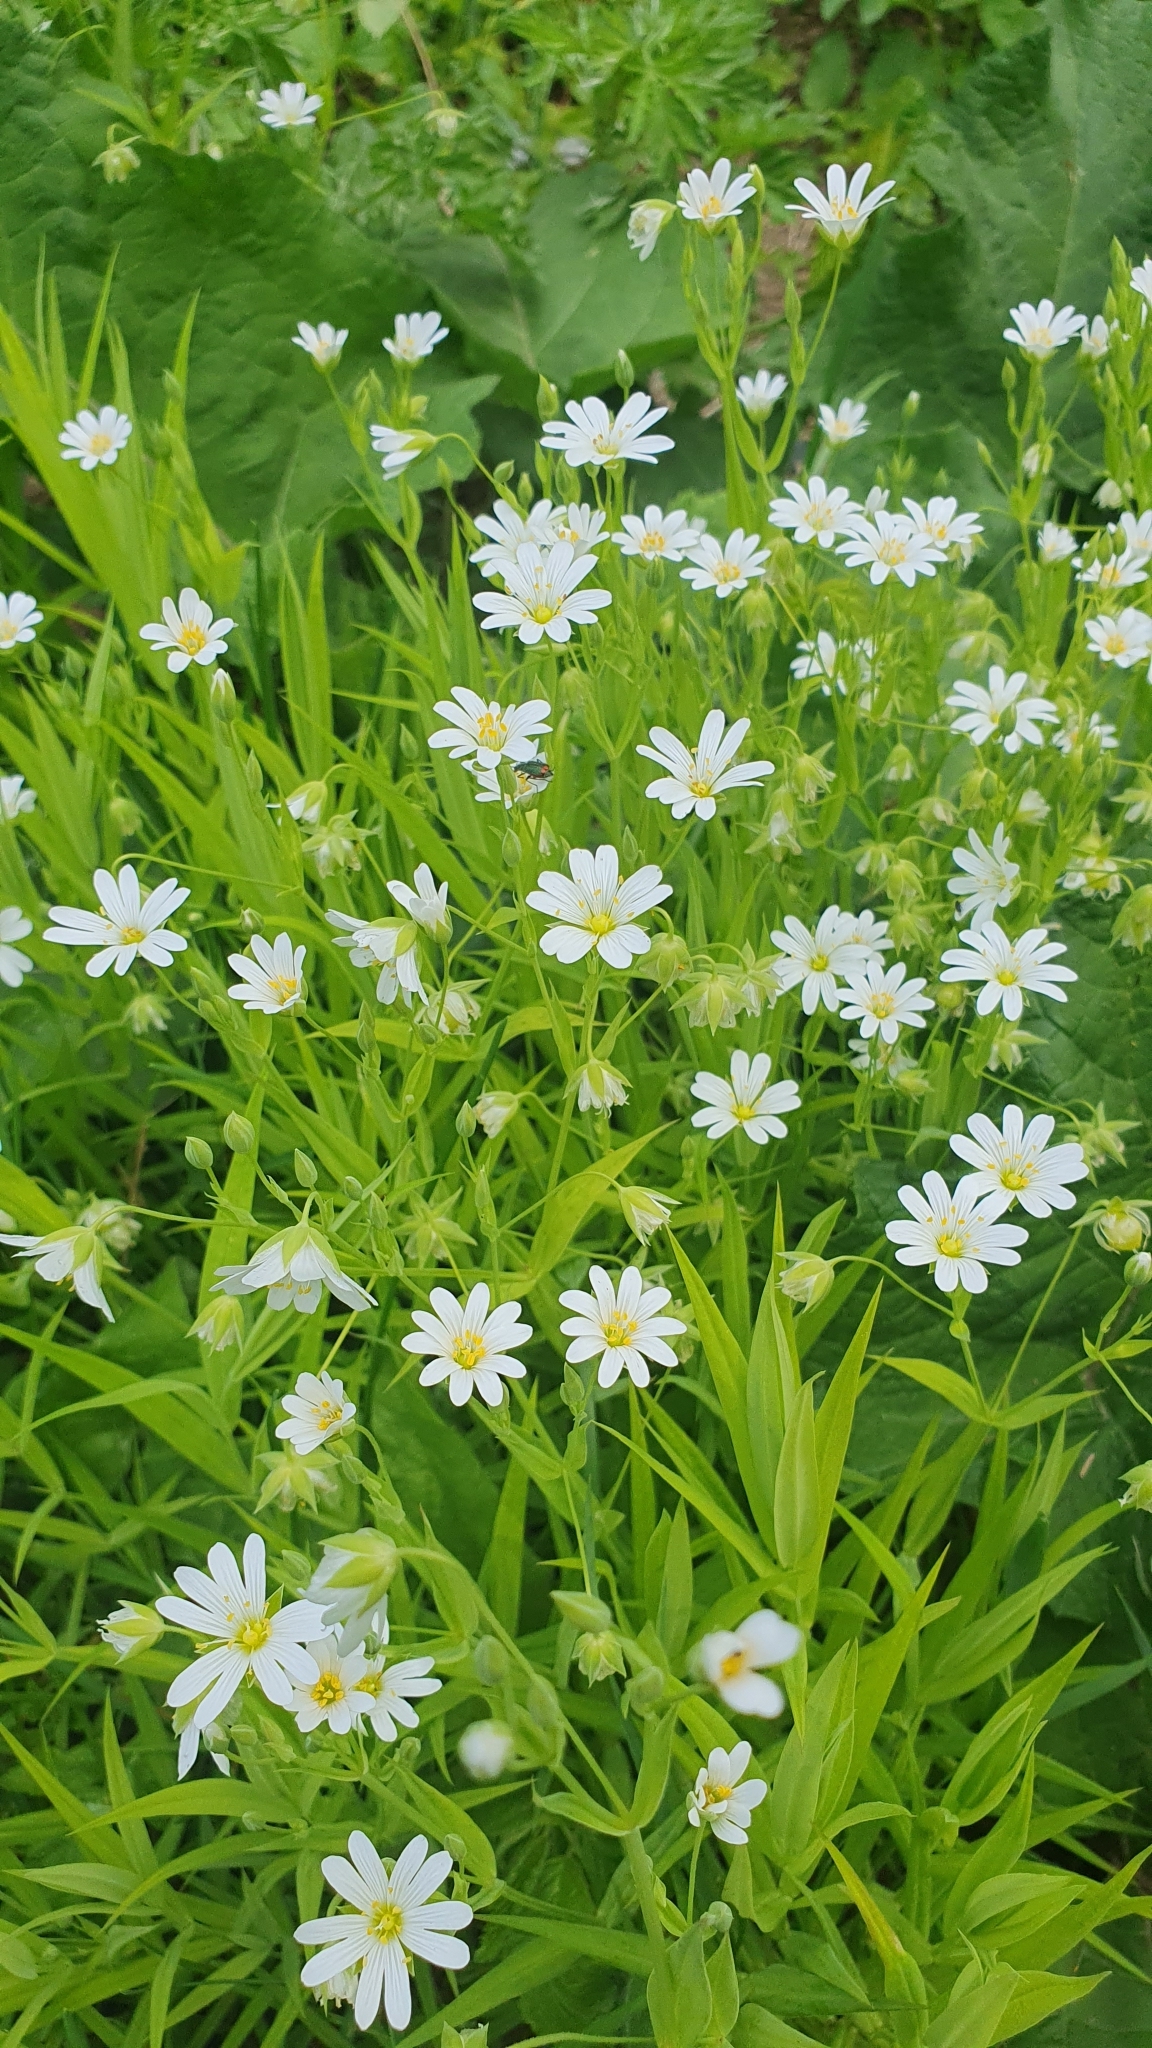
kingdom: Plantae
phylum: Tracheophyta
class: Magnoliopsida
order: Caryophyllales
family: Caryophyllaceae
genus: Rabelera
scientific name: Rabelera holostea
